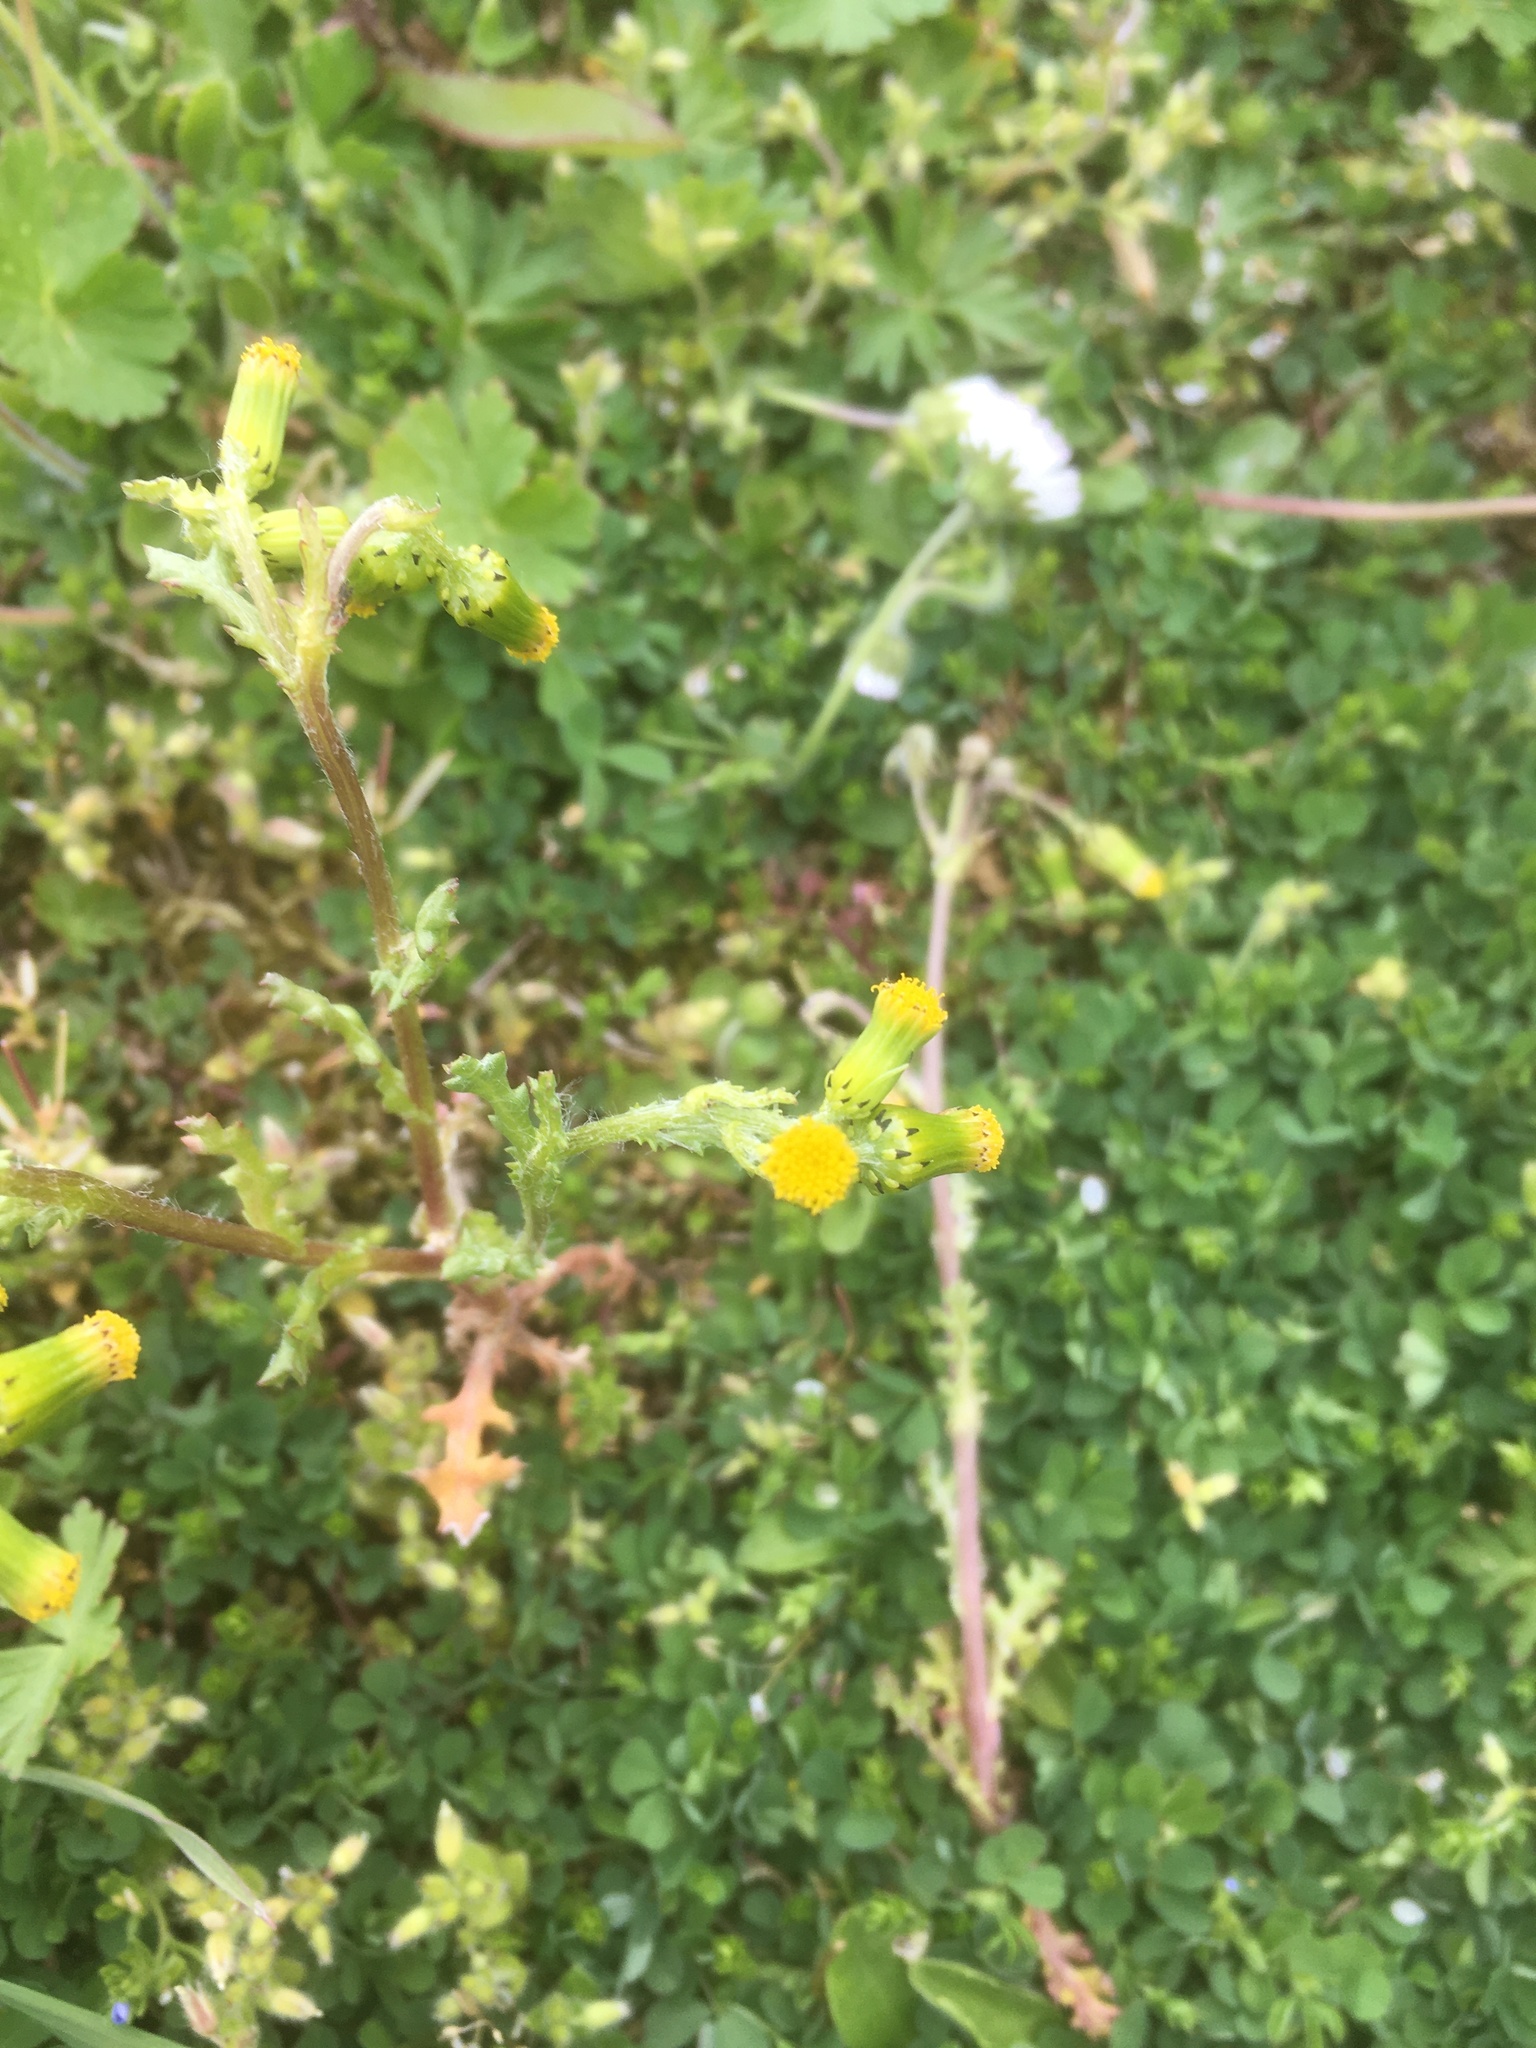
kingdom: Plantae
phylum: Tracheophyta
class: Magnoliopsida
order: Asterales
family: Asteraceae
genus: Senecio
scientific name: Senecio vulgaris
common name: Old-man-in-the-spring
